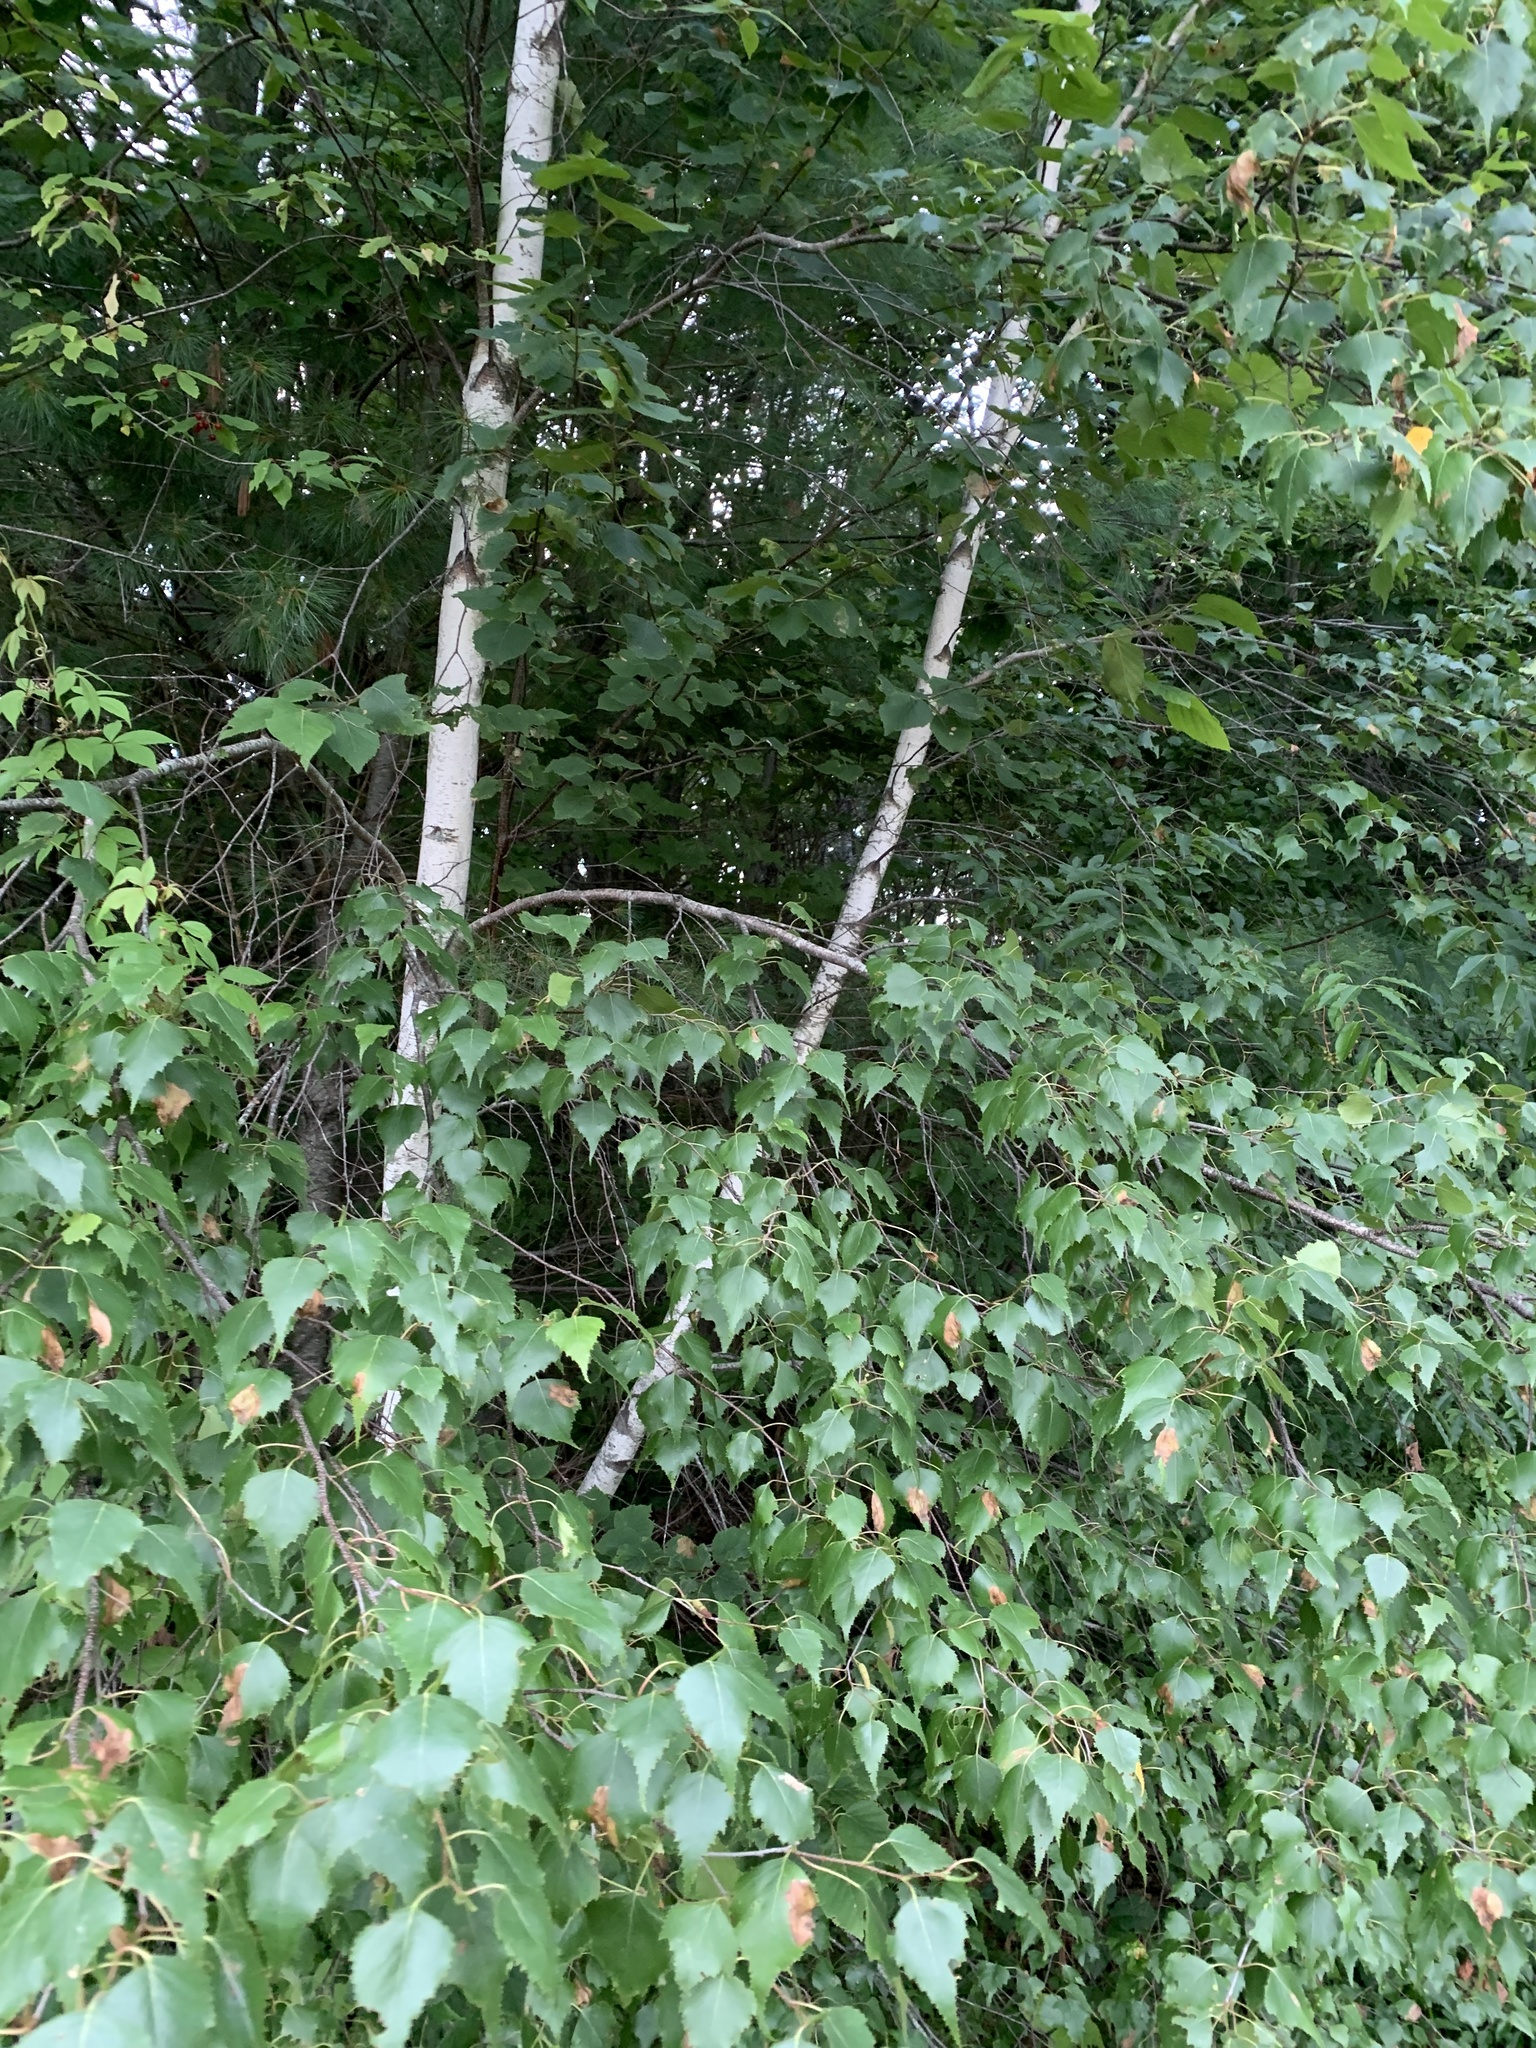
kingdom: Plantae
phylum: Tracheophyta
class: Magnoliopsida
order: Fagales
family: Betulaceae
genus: Betula
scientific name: Betula populifolia
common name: Fire birch
